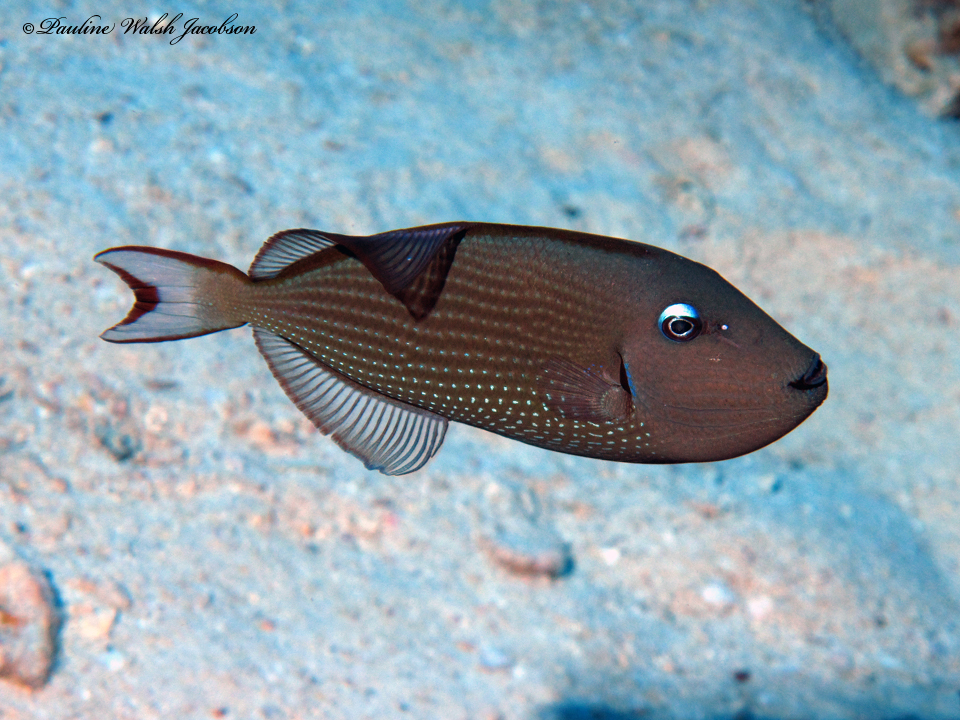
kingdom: Animalia
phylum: Chordata
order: Tetraodontiformes
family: Balistidae
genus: Xanthichthys
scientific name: Xanthichthys auromarginatus
